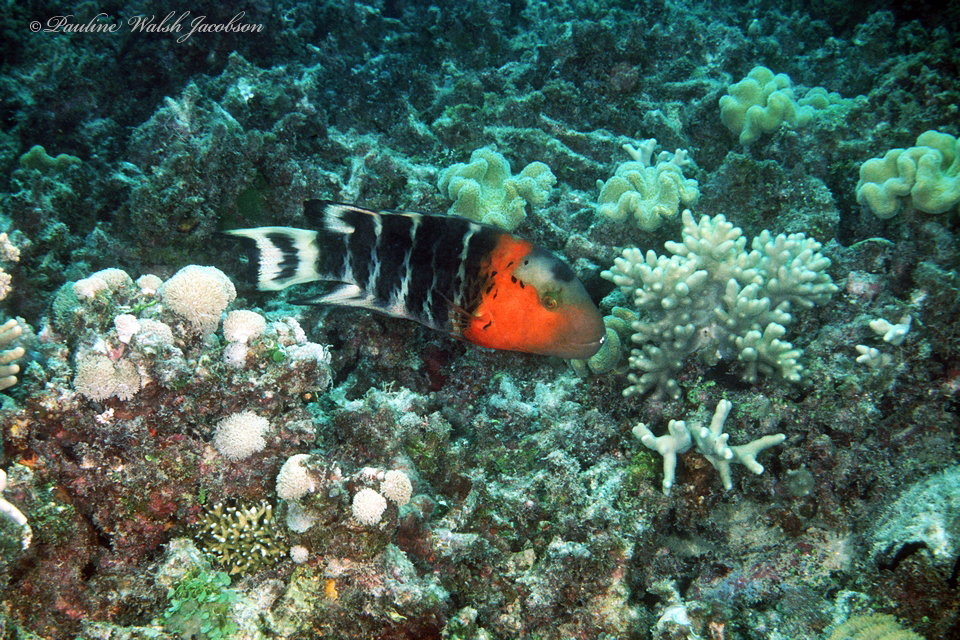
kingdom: Animalia
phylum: Chordata
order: Perciformes
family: Labridae
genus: Cheilinus
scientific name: Cheilinus fasciatus
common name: Red-breasted wrasse
